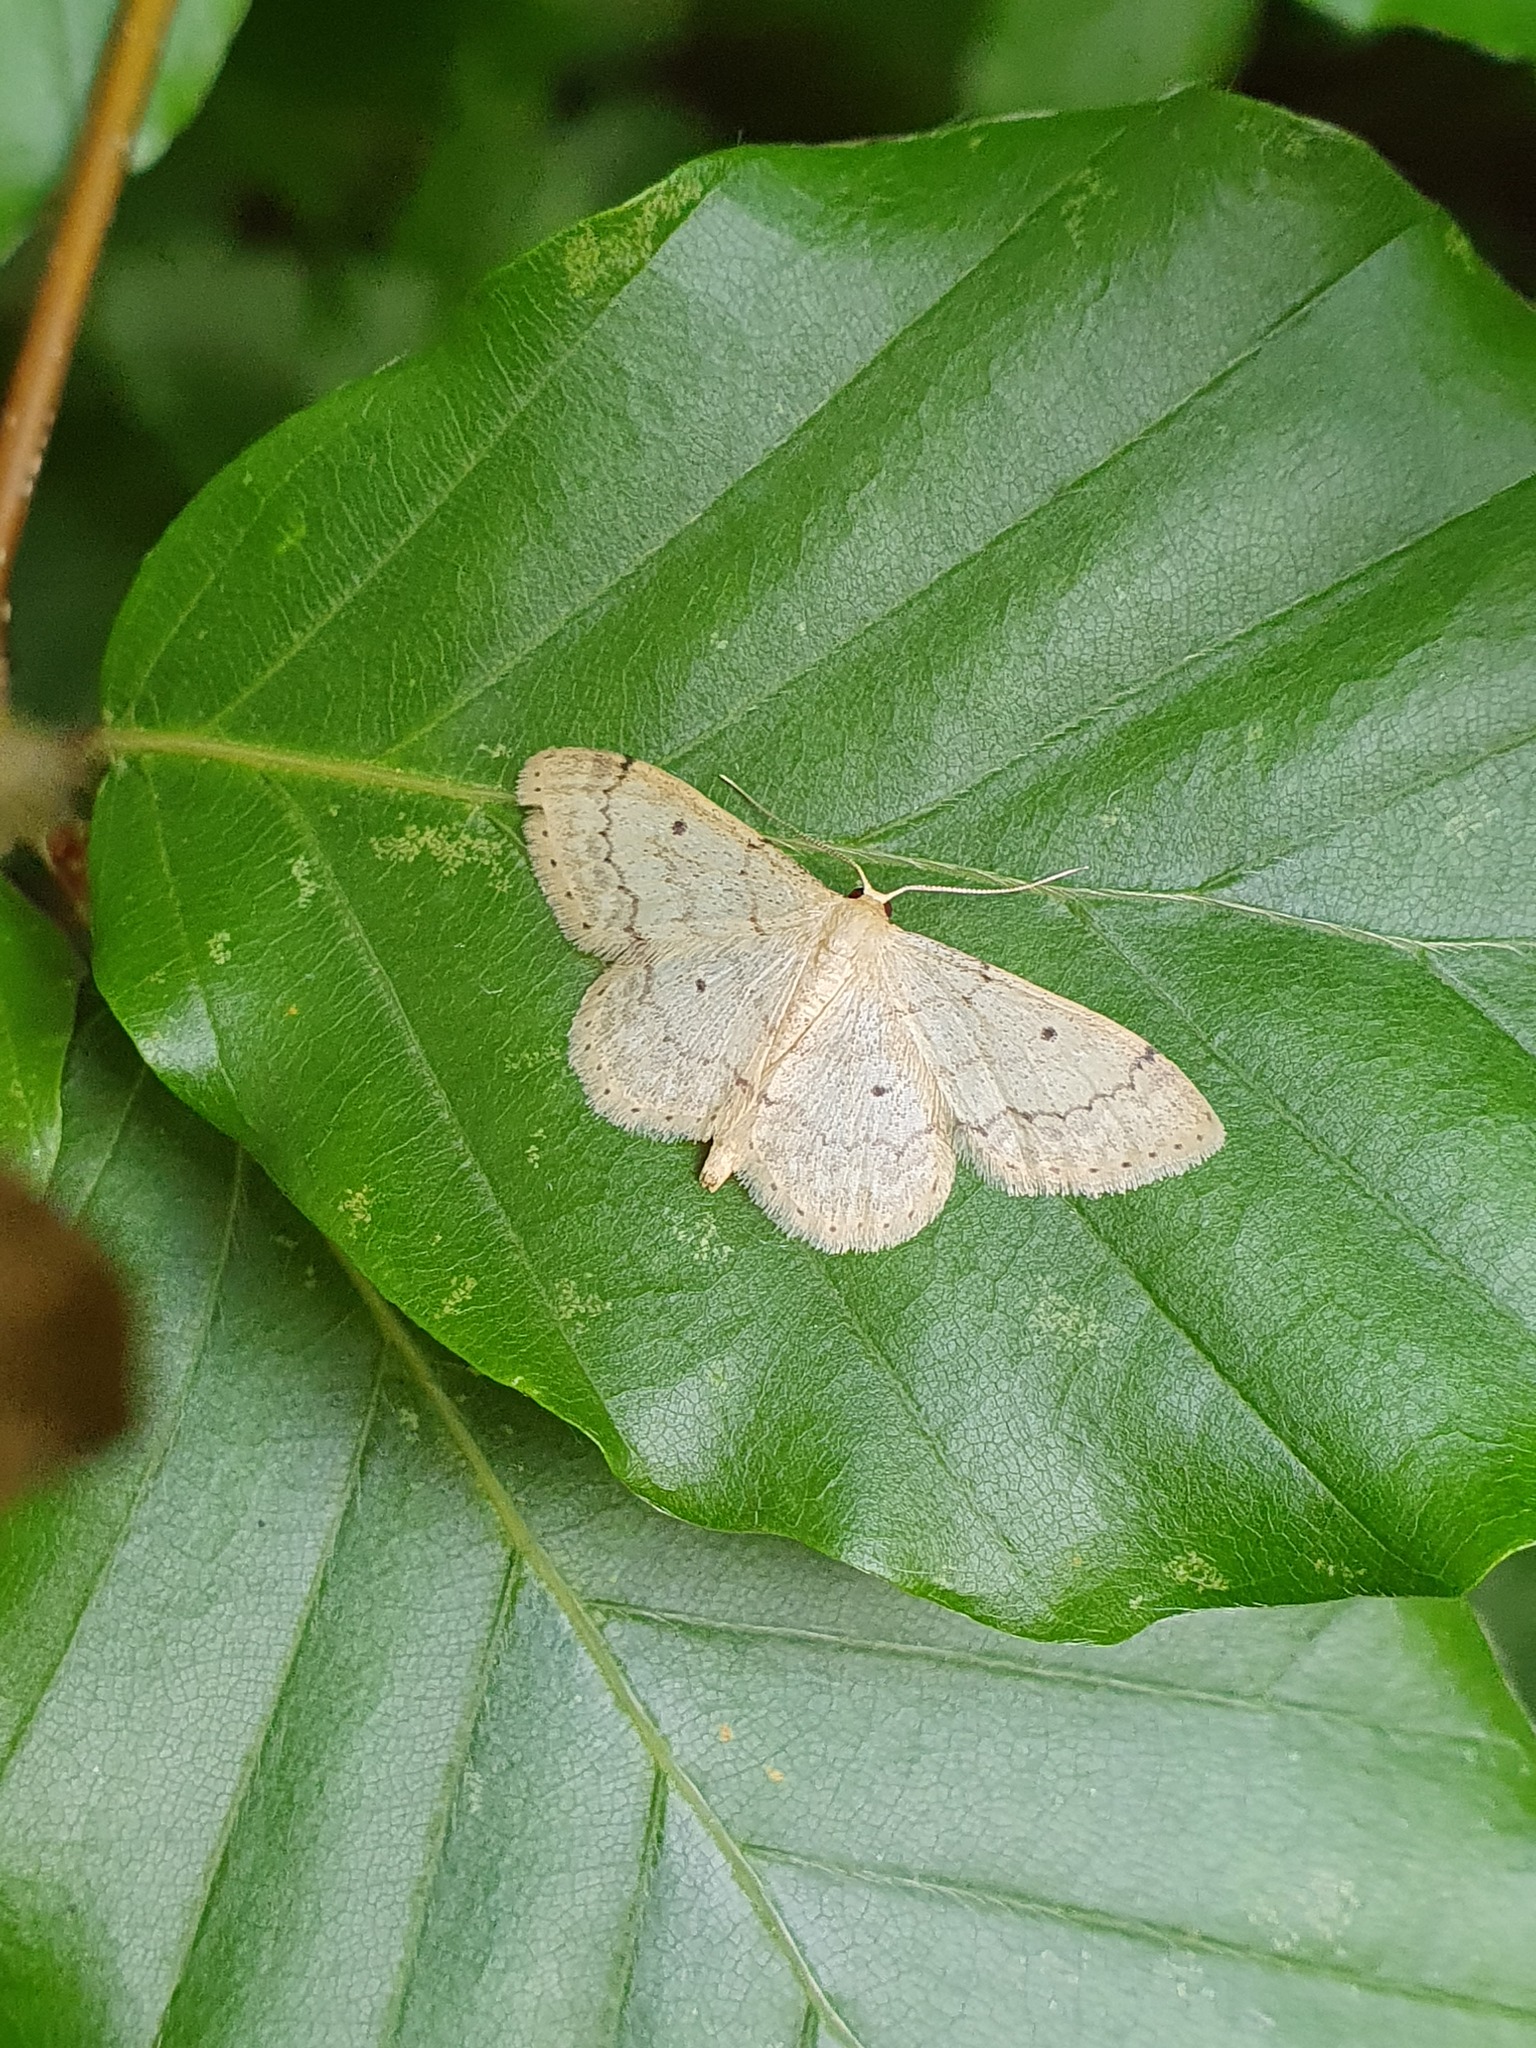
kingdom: Animalia
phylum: Arthropoda
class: Insecta
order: Lepidoptera
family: Geometridae
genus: Idaea
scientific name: Idaea biselata
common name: Small fan-footed wave
